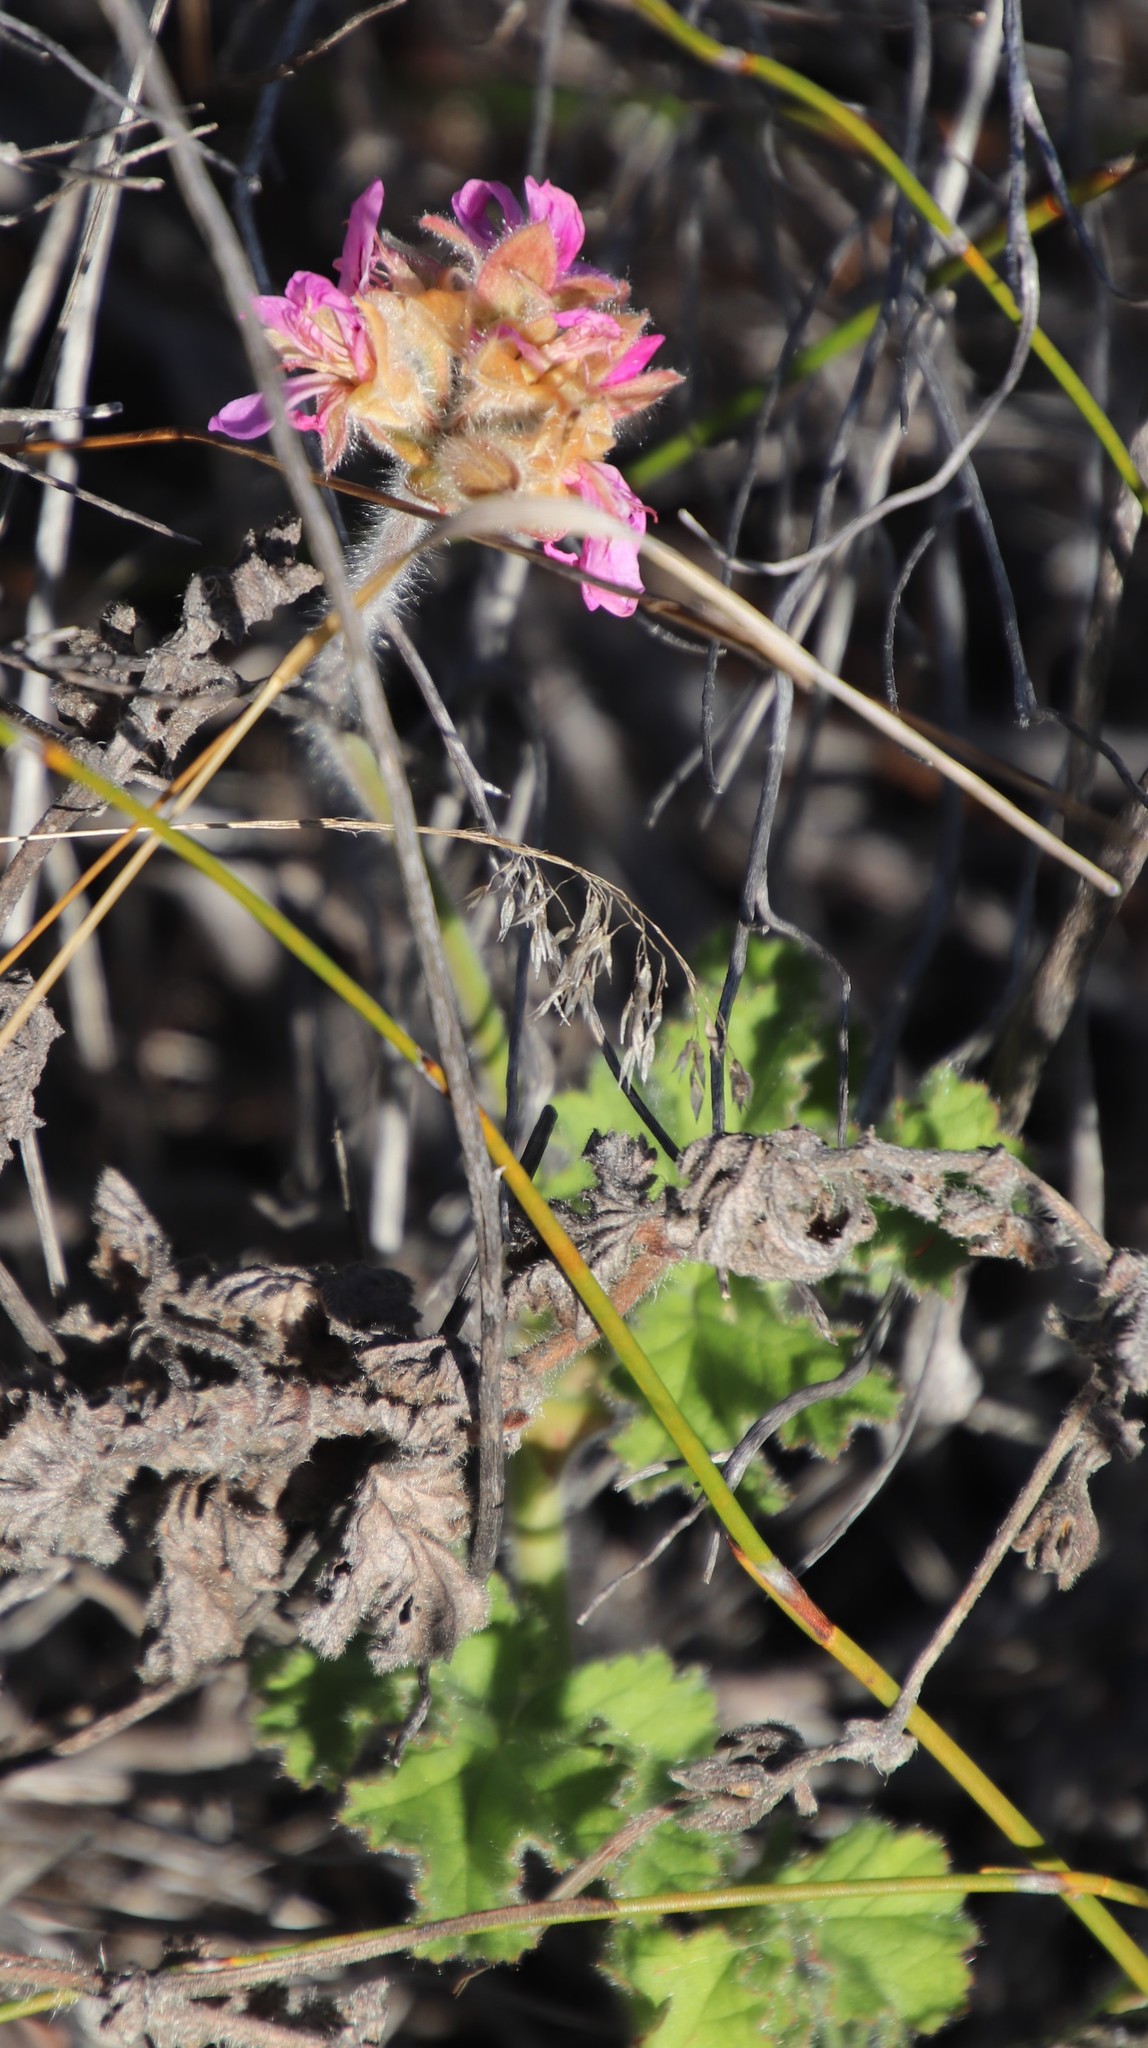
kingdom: Plantae
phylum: Tracheophyta
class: Magnoliopsida
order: Geraniales
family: Geraniaceae
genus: Pelargonium
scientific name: Pelargonium capitatum
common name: Rose scented geranium
